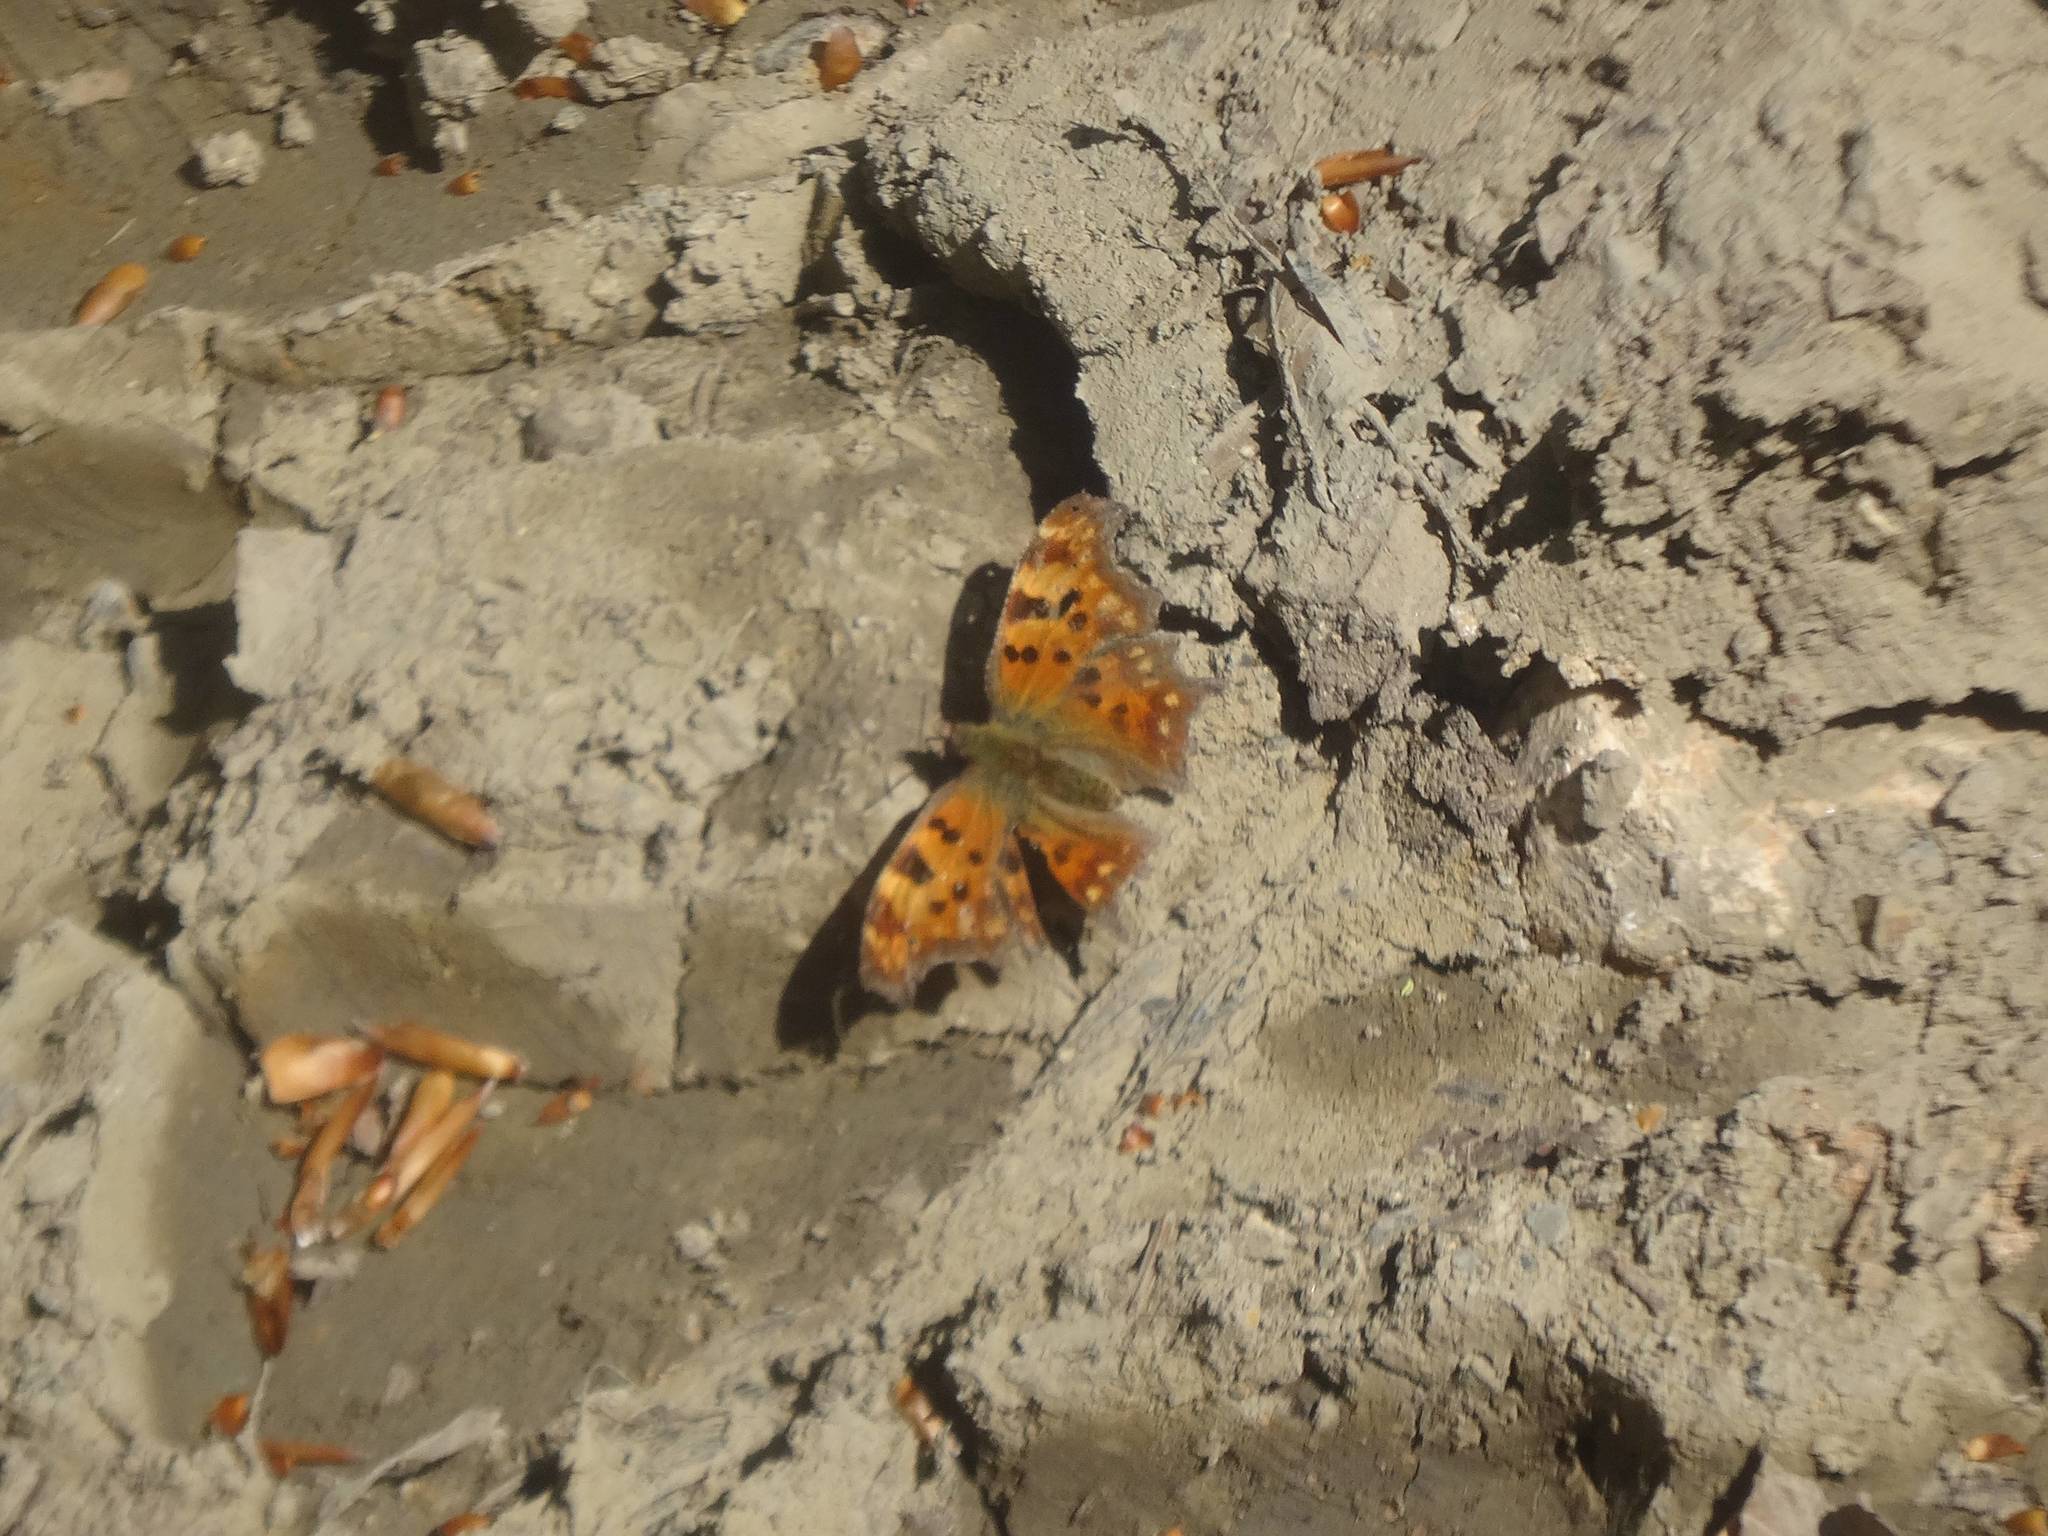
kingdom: Animalia
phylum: Arthropoda
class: Insecta
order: Lepidoptera
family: Nymphalidae
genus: Polygonia
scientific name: Polygonia c-album
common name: Comma
